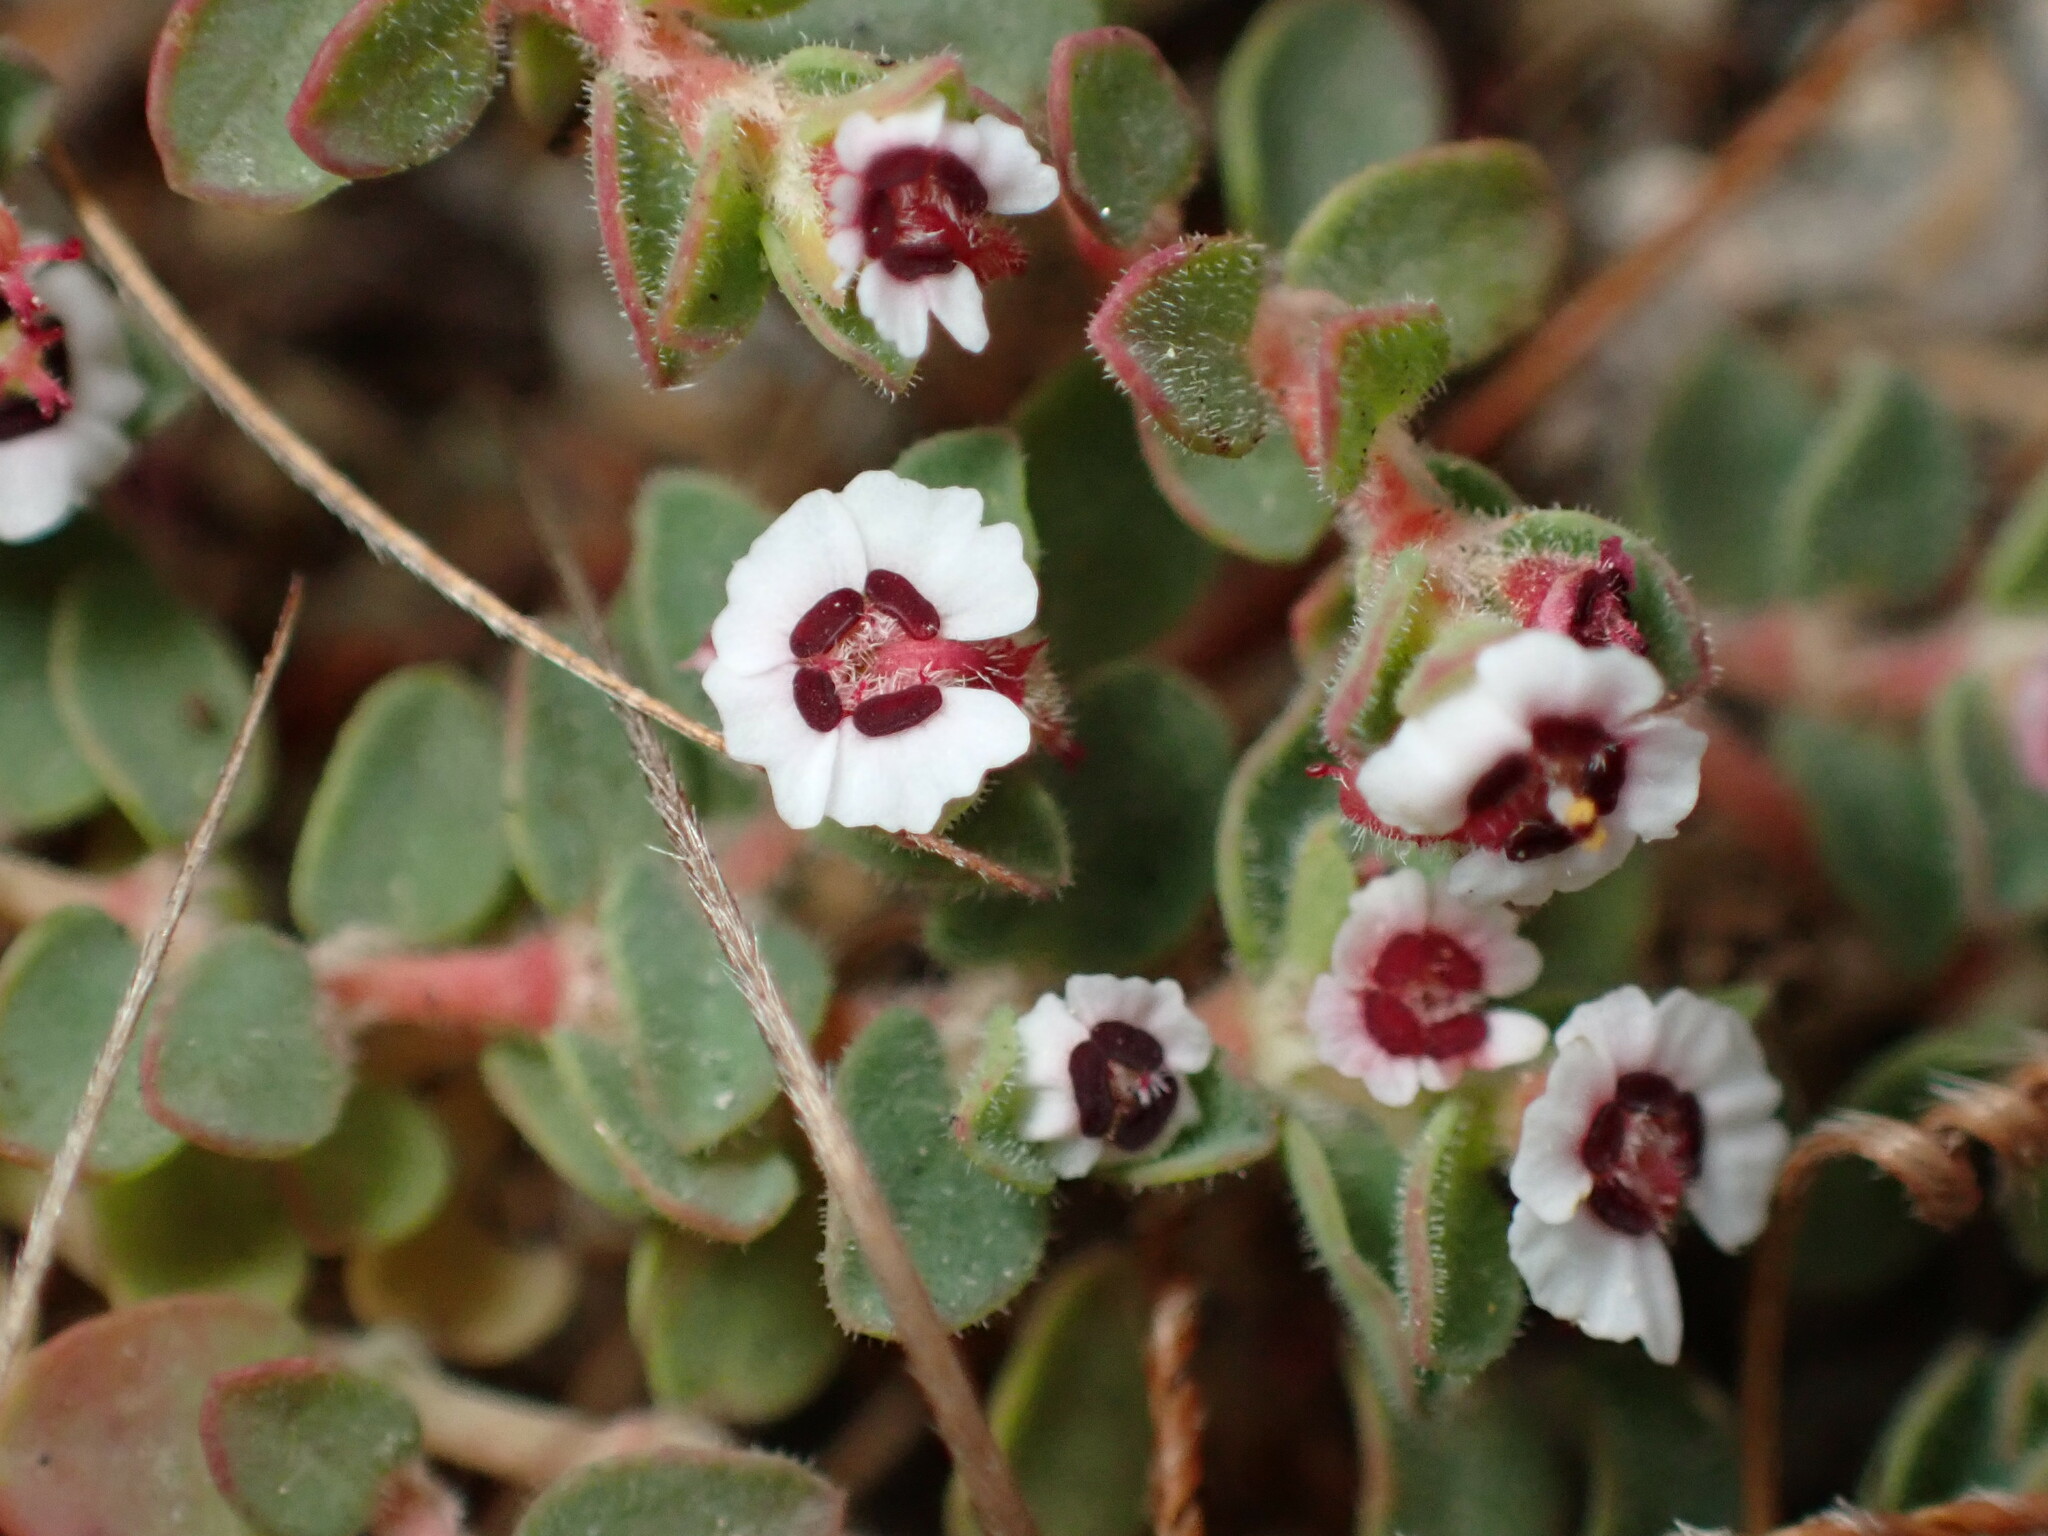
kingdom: Plantae
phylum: Tracheophyta
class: Magnoliopsida
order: Malpighiales
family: Euphorbiaceae
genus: Euphorbia
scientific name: Euphorbia polycarpa
